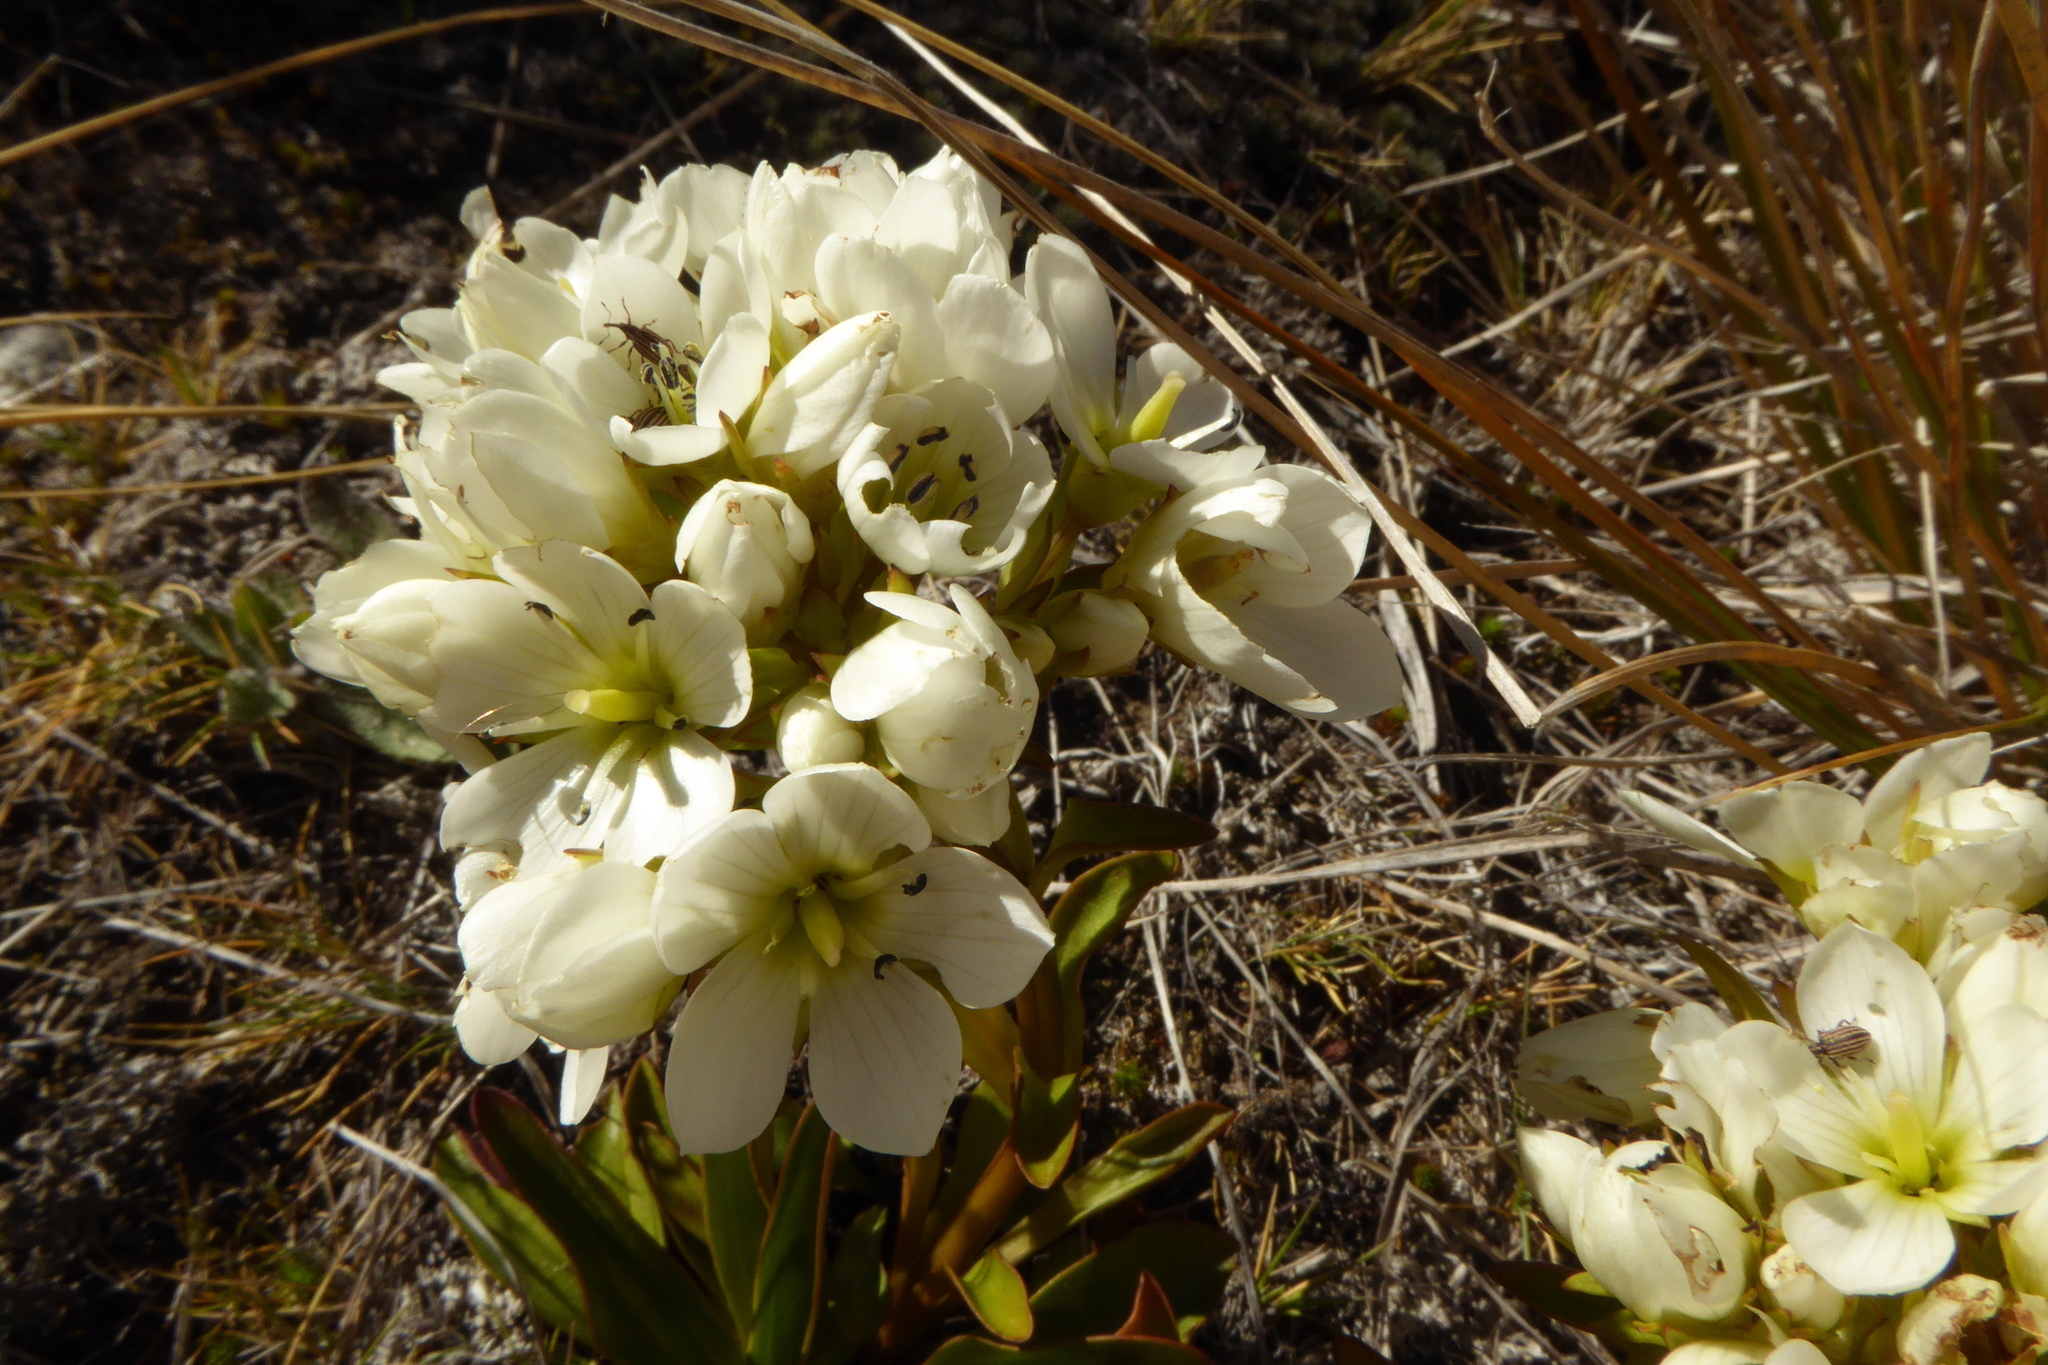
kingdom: Plantae
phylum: Tracheophyta
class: Magnoliopsida
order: Gentianales
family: Gentianaceae
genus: Gentianella
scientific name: Gentianella corymbifera
